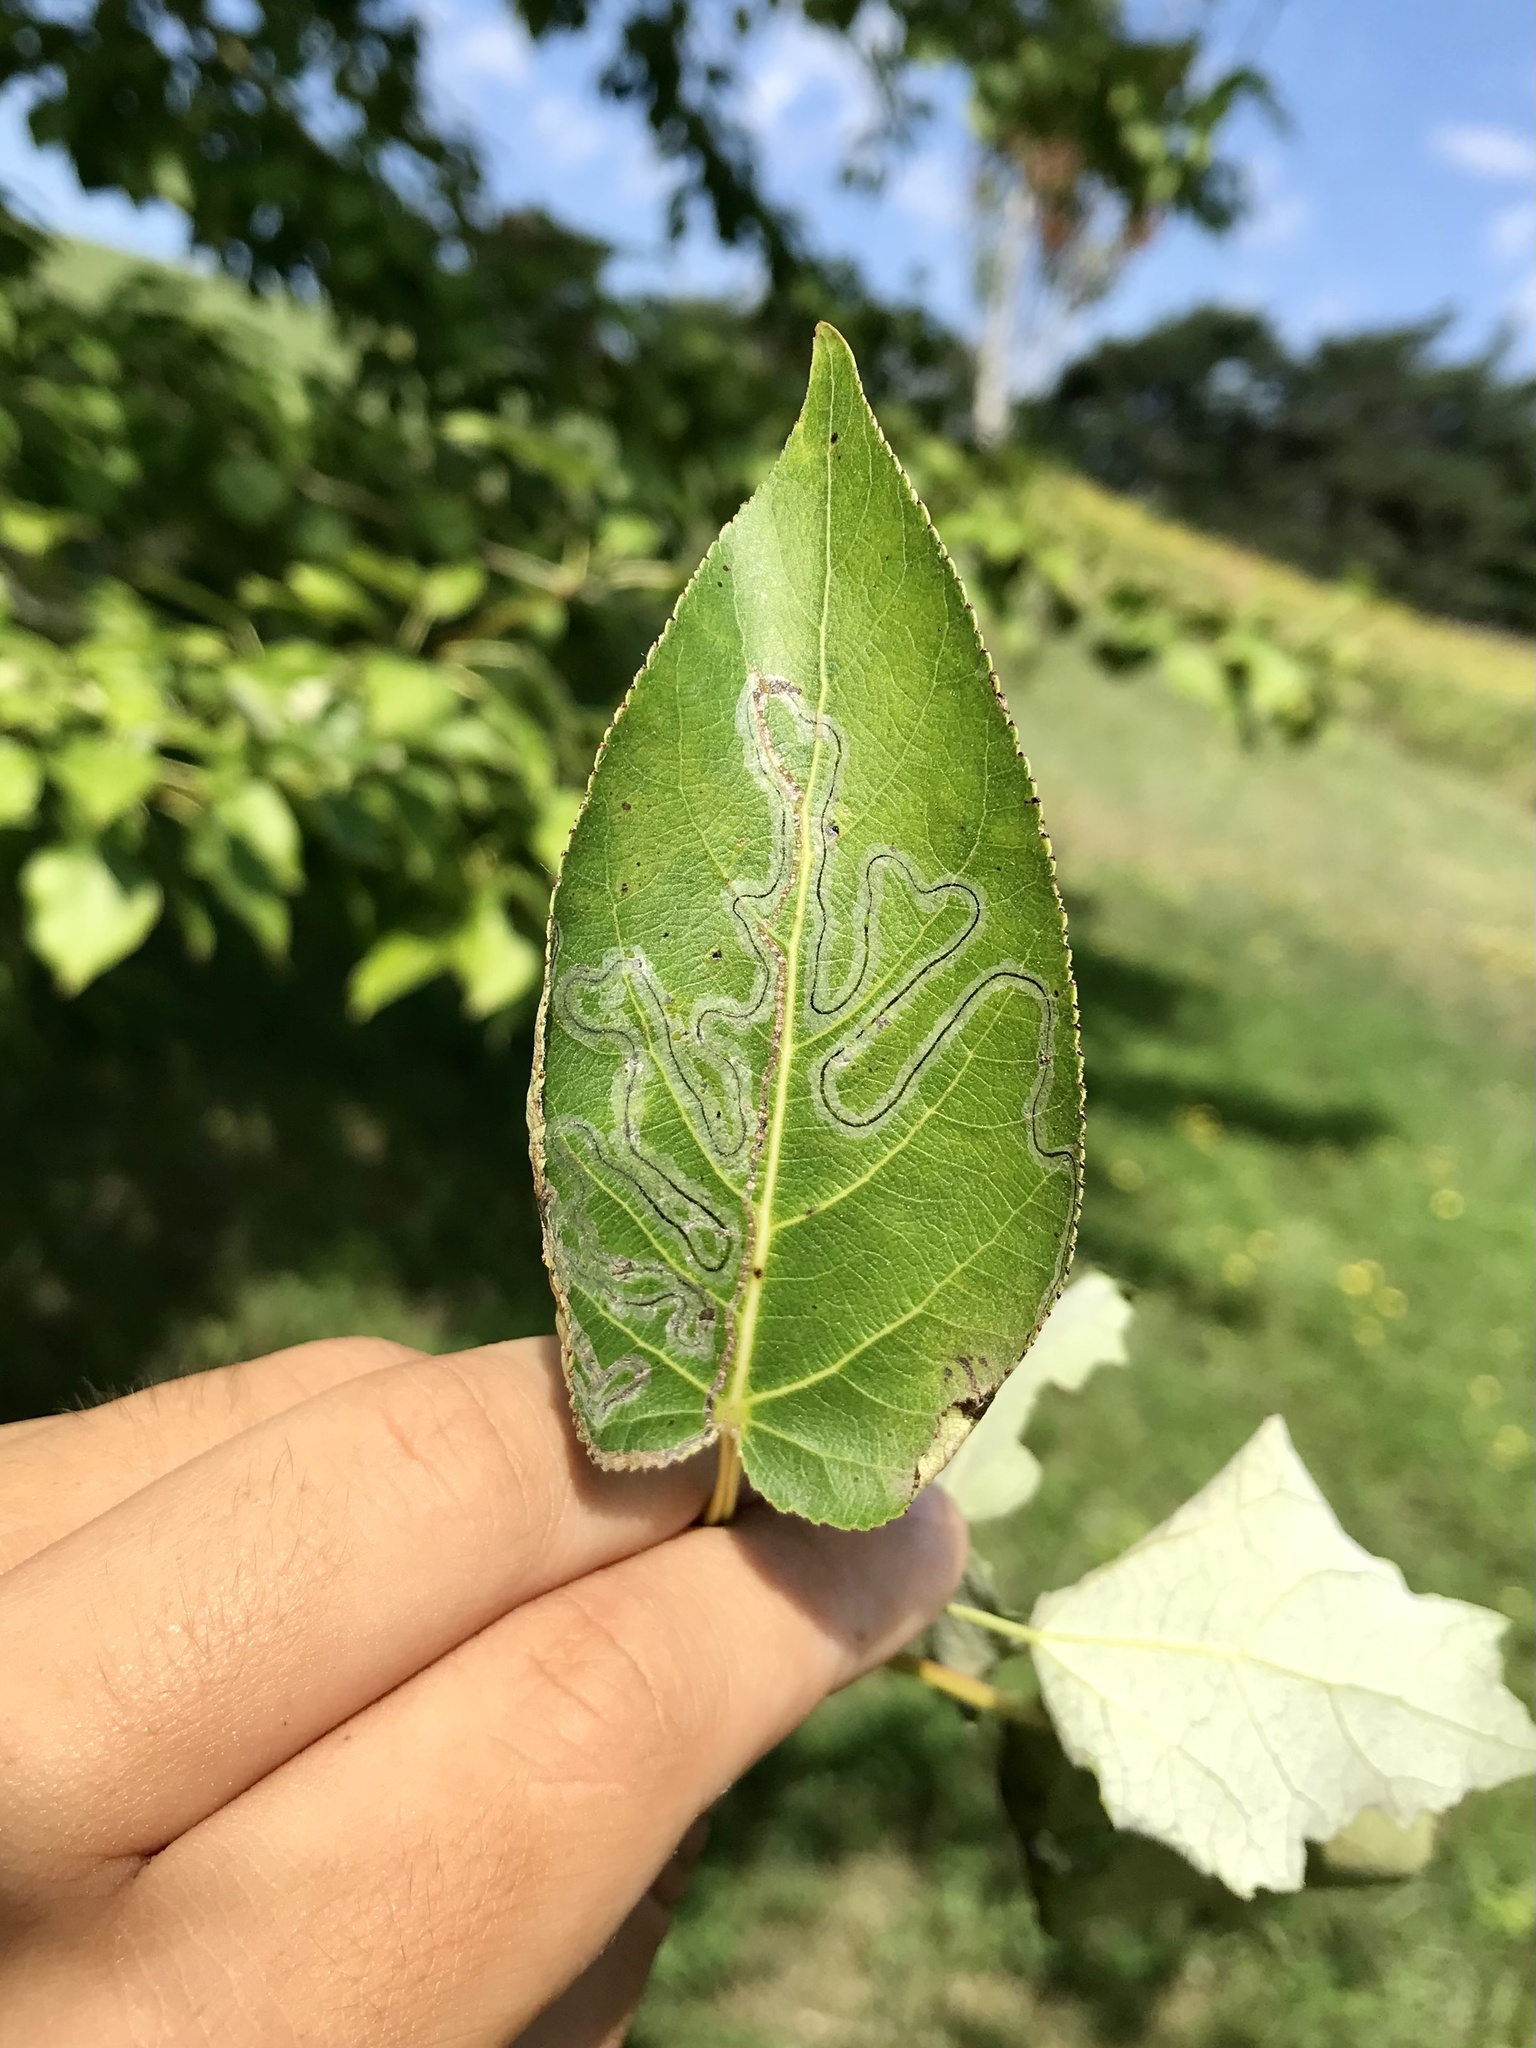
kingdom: Animalia
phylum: Arthropoda
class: Insecta
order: Lepidoptera
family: Gracillariidae
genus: Phyllocnistis
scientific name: Phyllocnistis populiella
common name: Aspen serpentine leafminer moth
